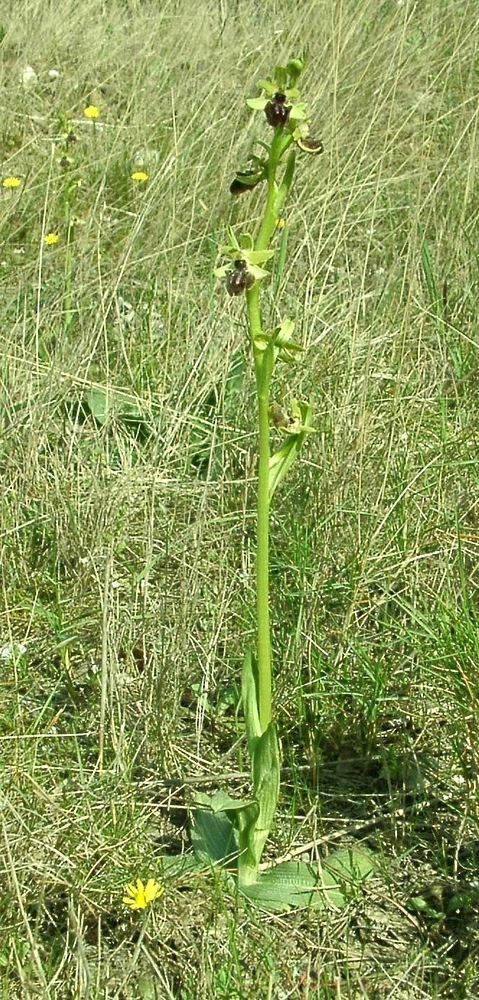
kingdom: Plantae
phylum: Tracheophyta
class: Liliopsida
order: Asparagales
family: Orchidaceae
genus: Ophrys
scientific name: Ophrys sphegodes
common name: Early spider-orchid
